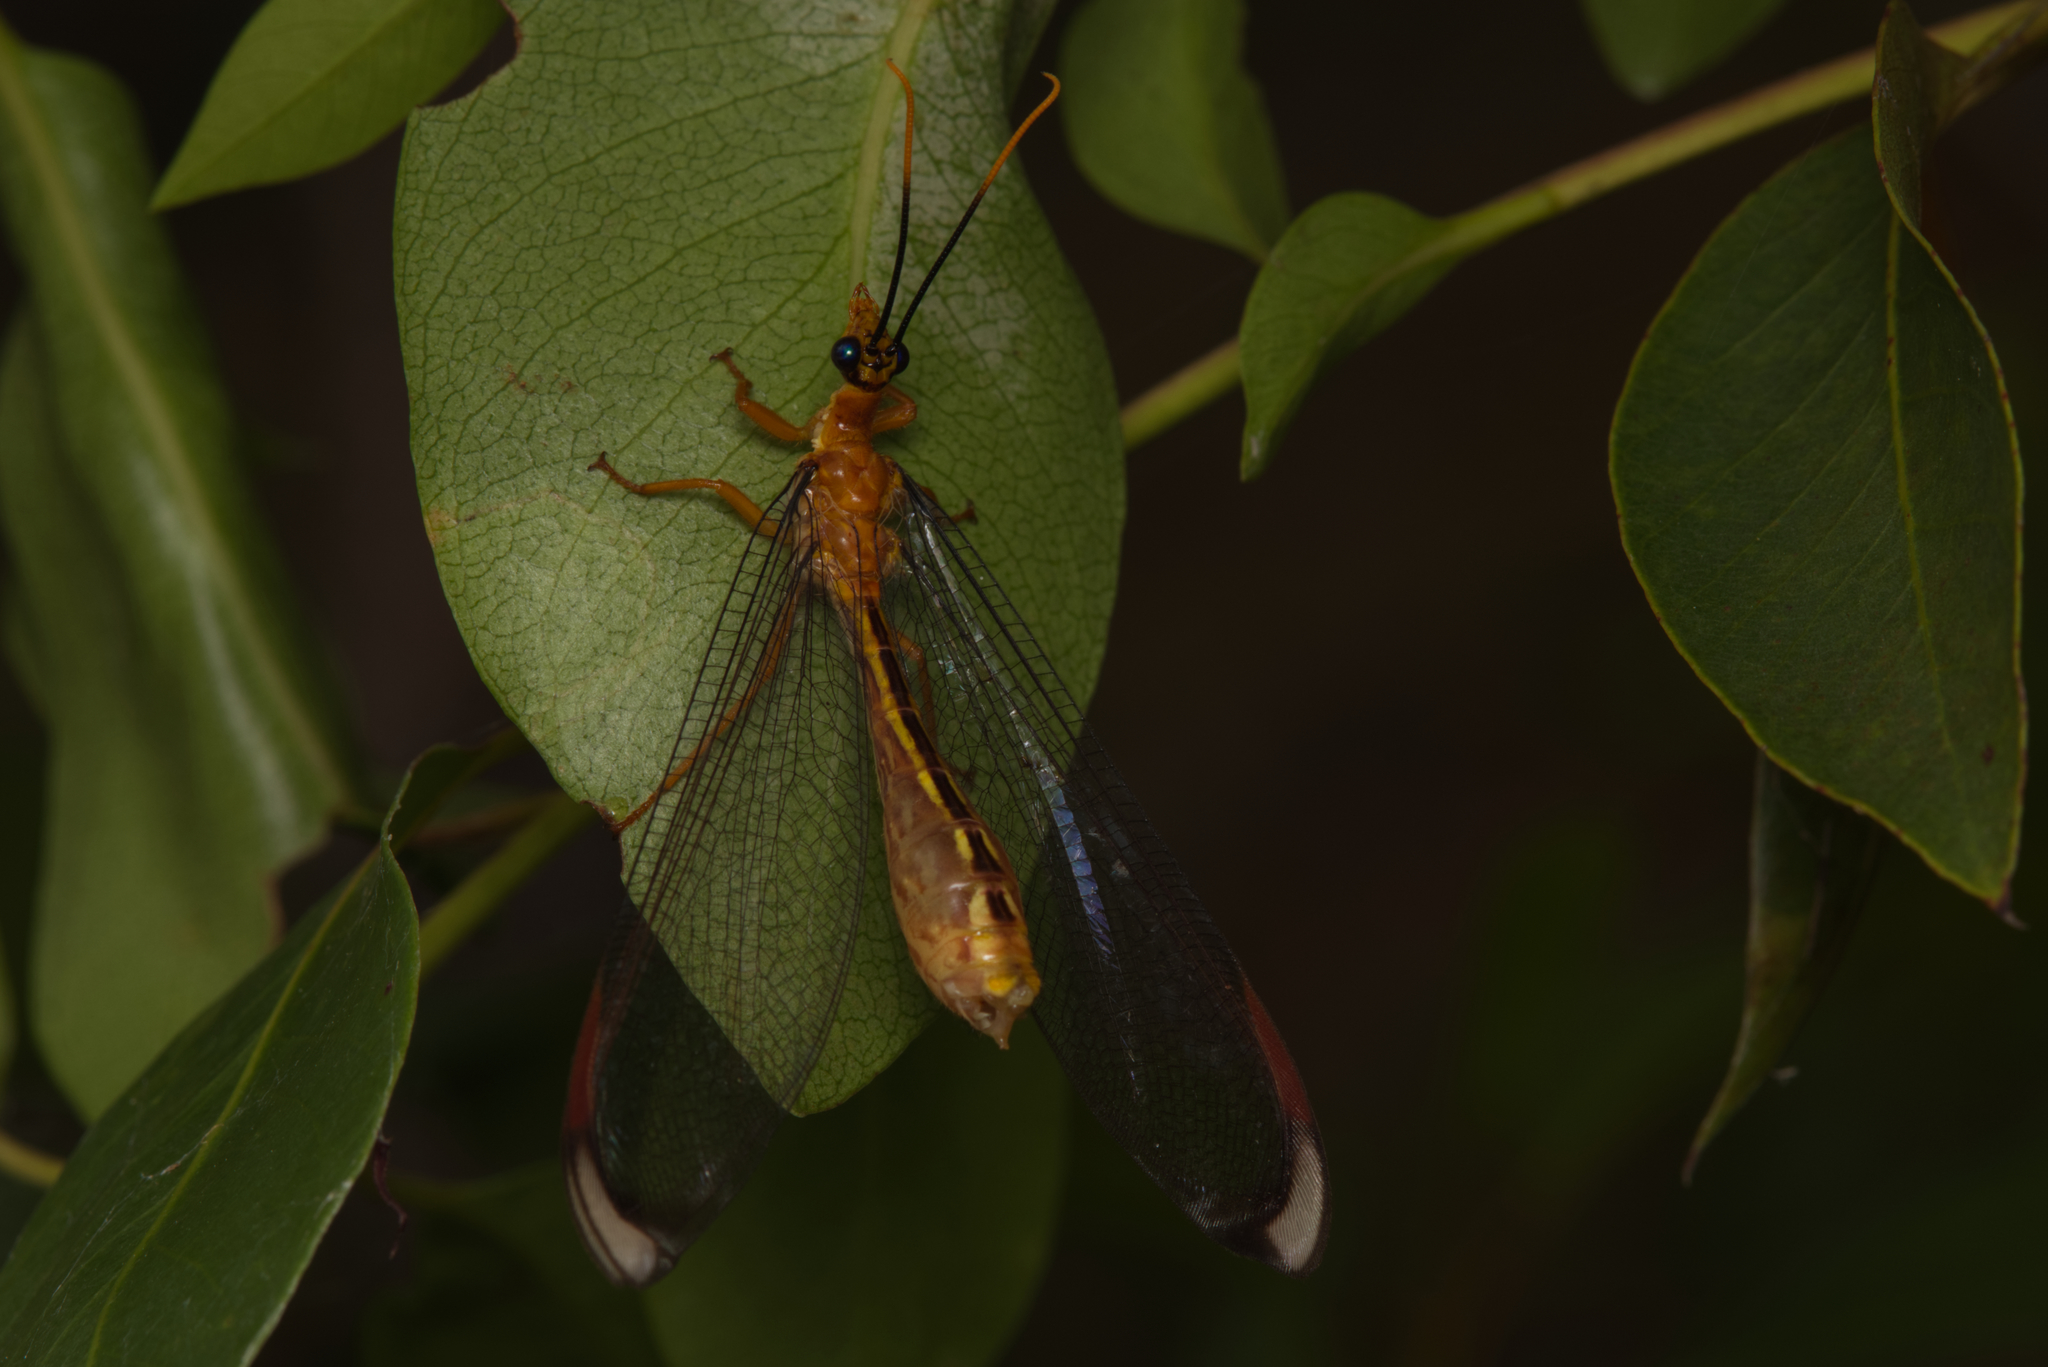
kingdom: Animalia
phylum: Arthropoda
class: Insecta
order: Neuroptera
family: Nymphidae
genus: Nymphes
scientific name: Nymphes myrmeleonoides
